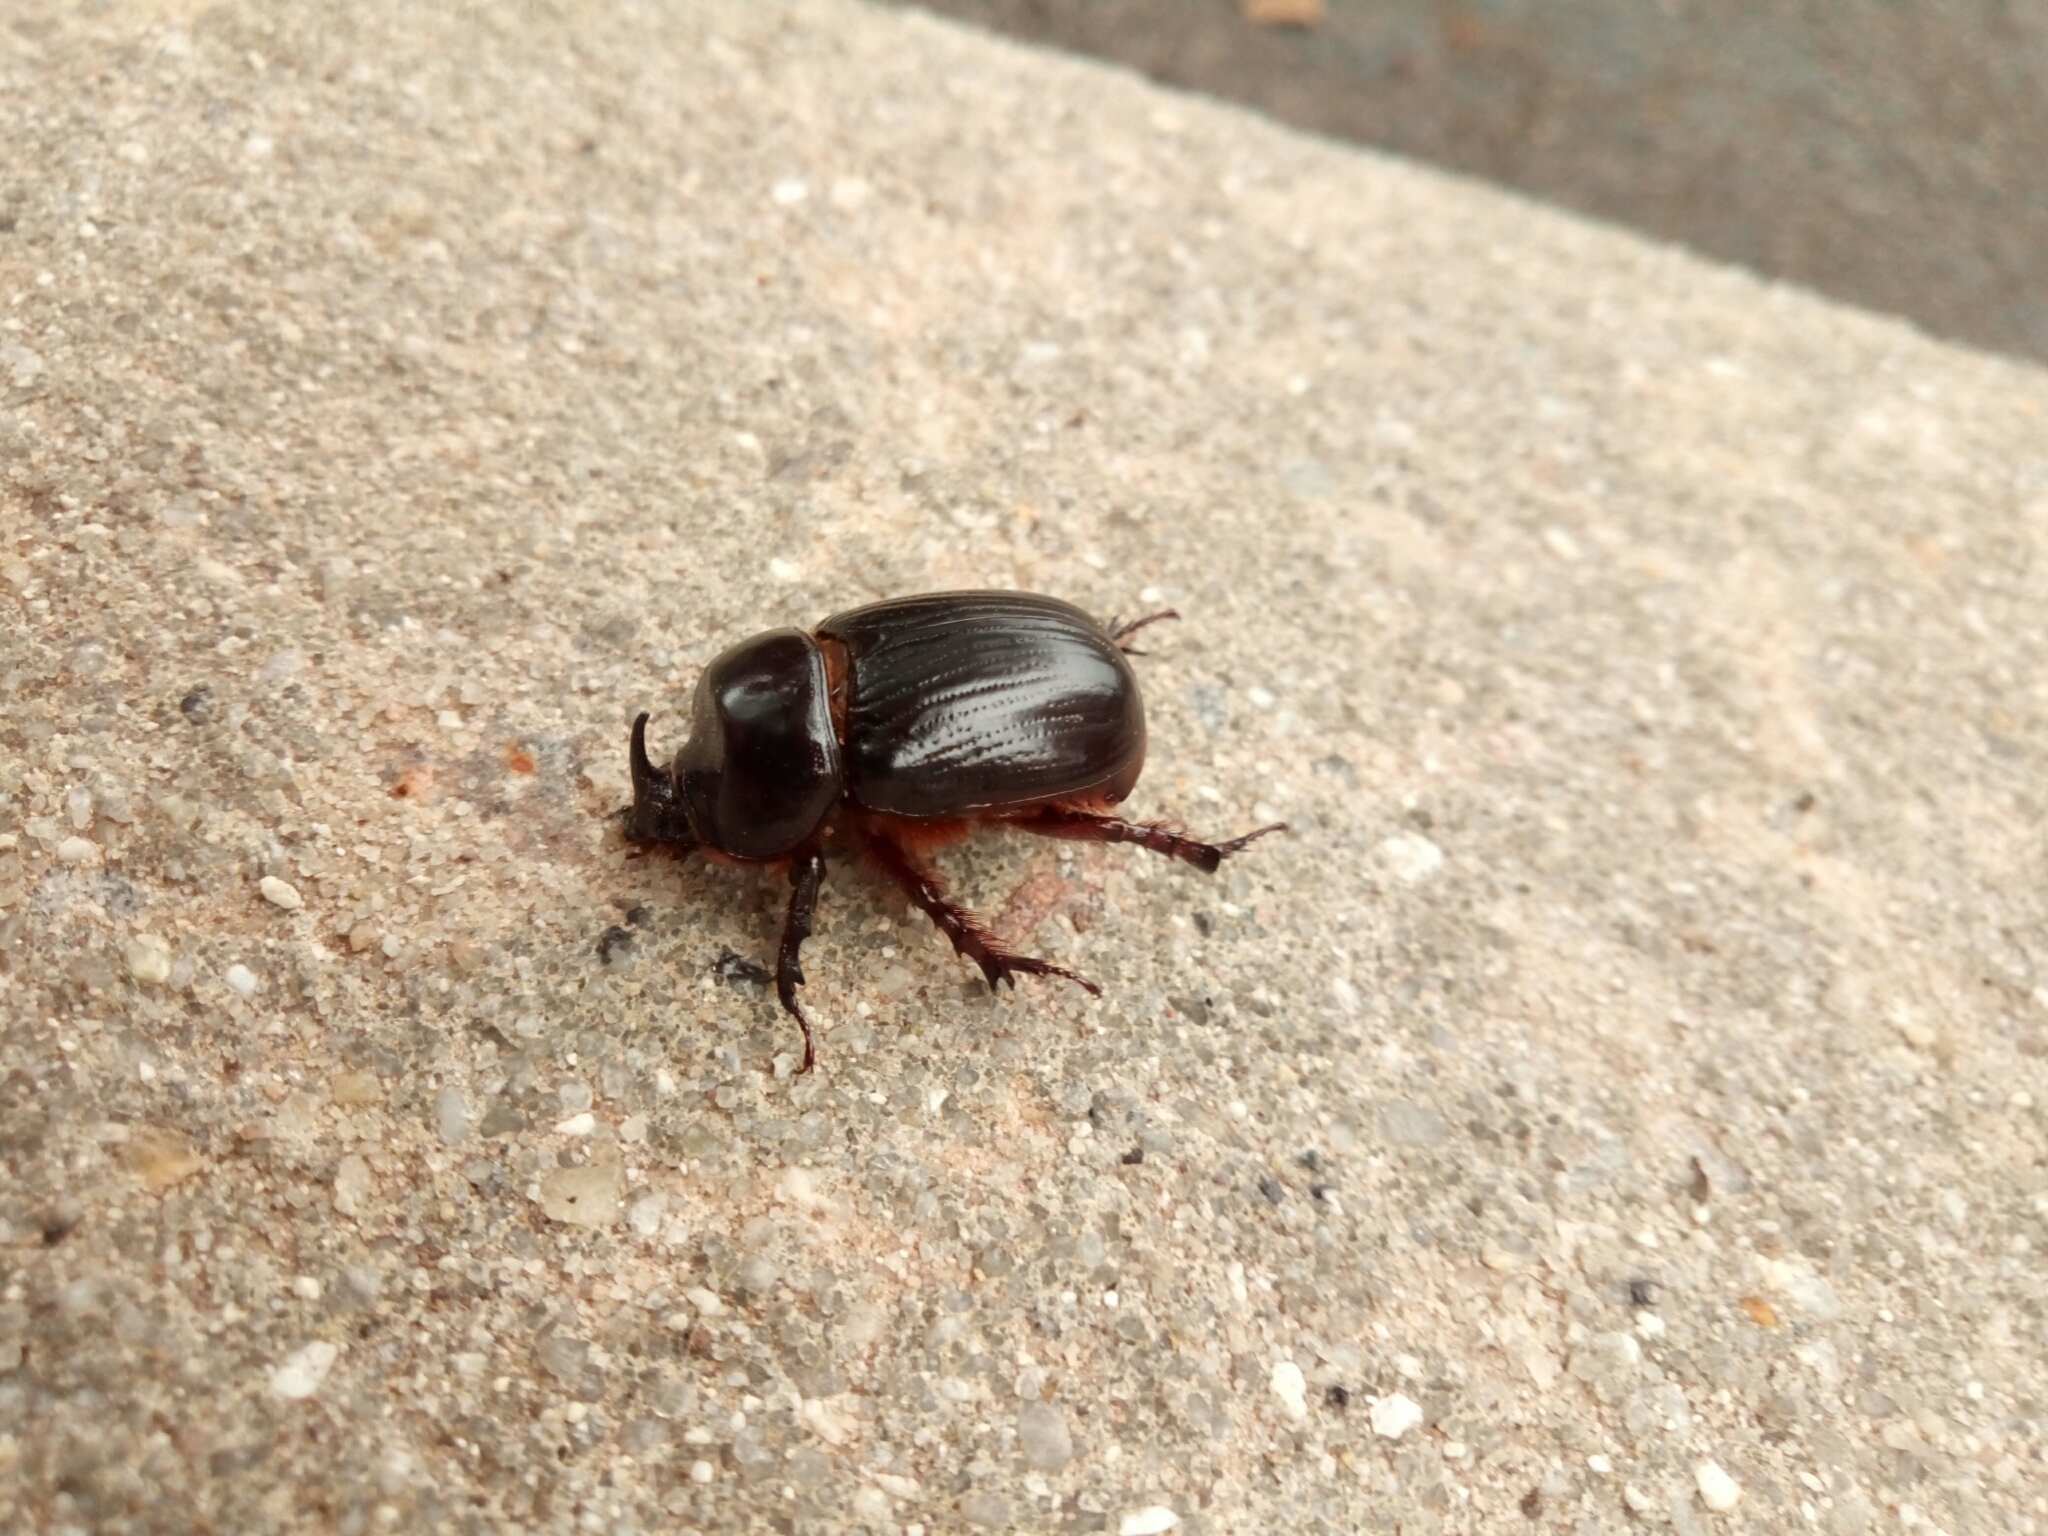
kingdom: Animalia
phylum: Arthropoda
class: Insecta
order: Coleoptera
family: Scarabaeidae
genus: Xyloryctes
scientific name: Xyloryctes jamaicensis
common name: Eastern rhinoceros beetle
